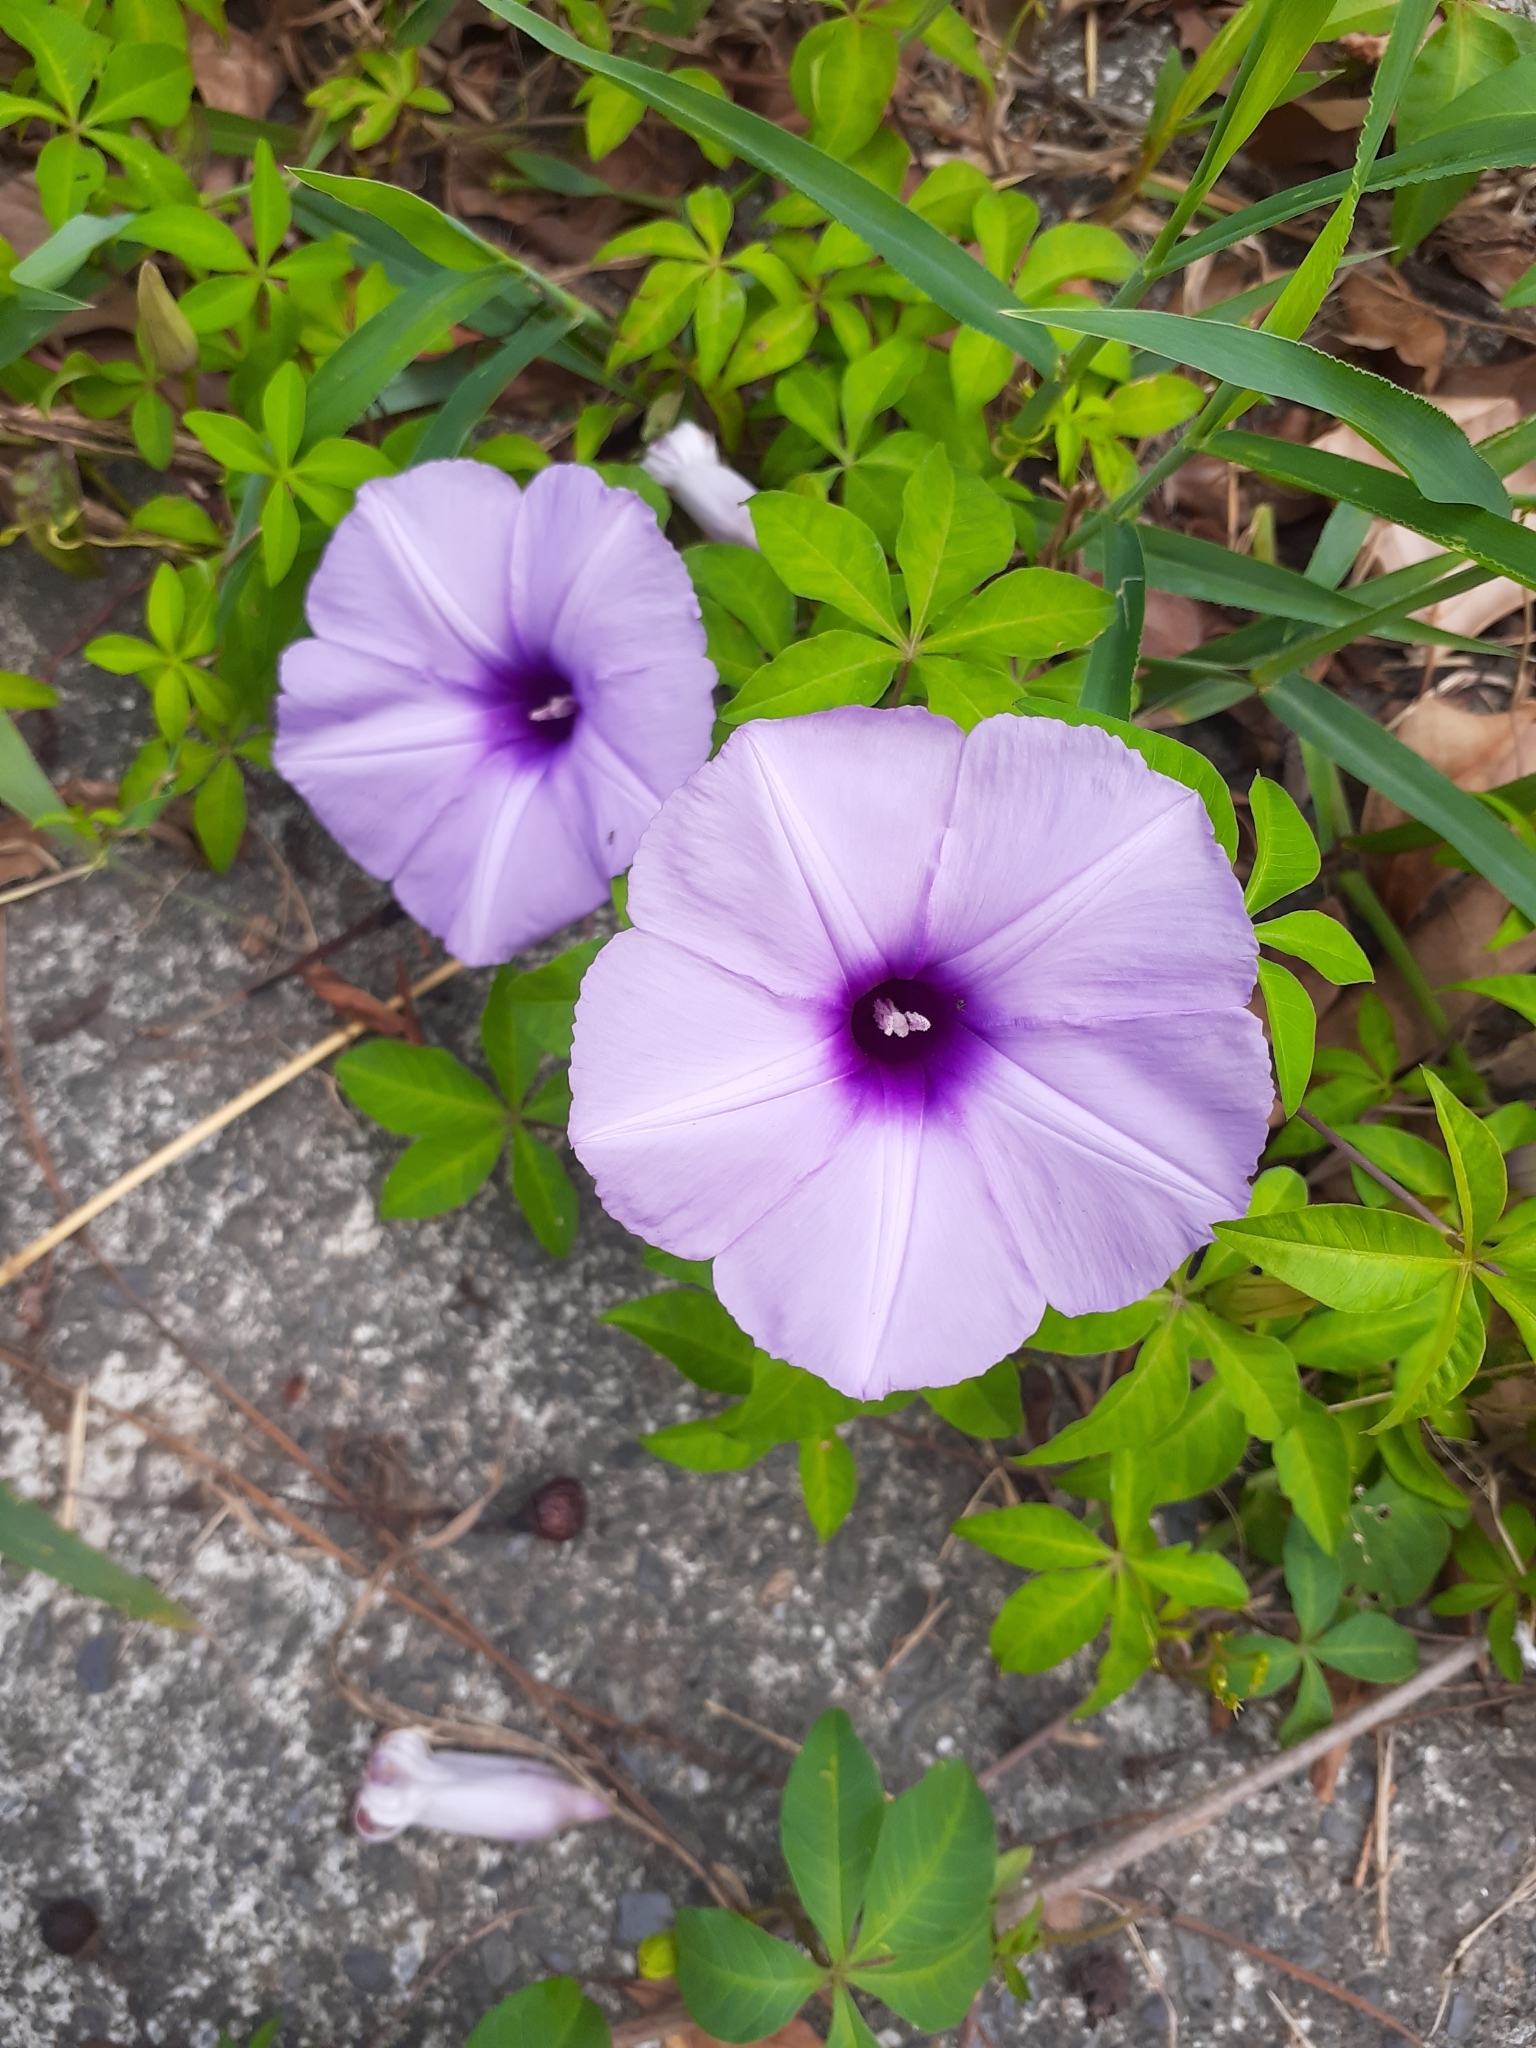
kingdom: Plantae
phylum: Tracheophyta
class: Magnoliopsida
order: Solanales
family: Convolvulaceae
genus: Ipomoea
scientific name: Ipomoea cairica
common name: Mile a minute vine
